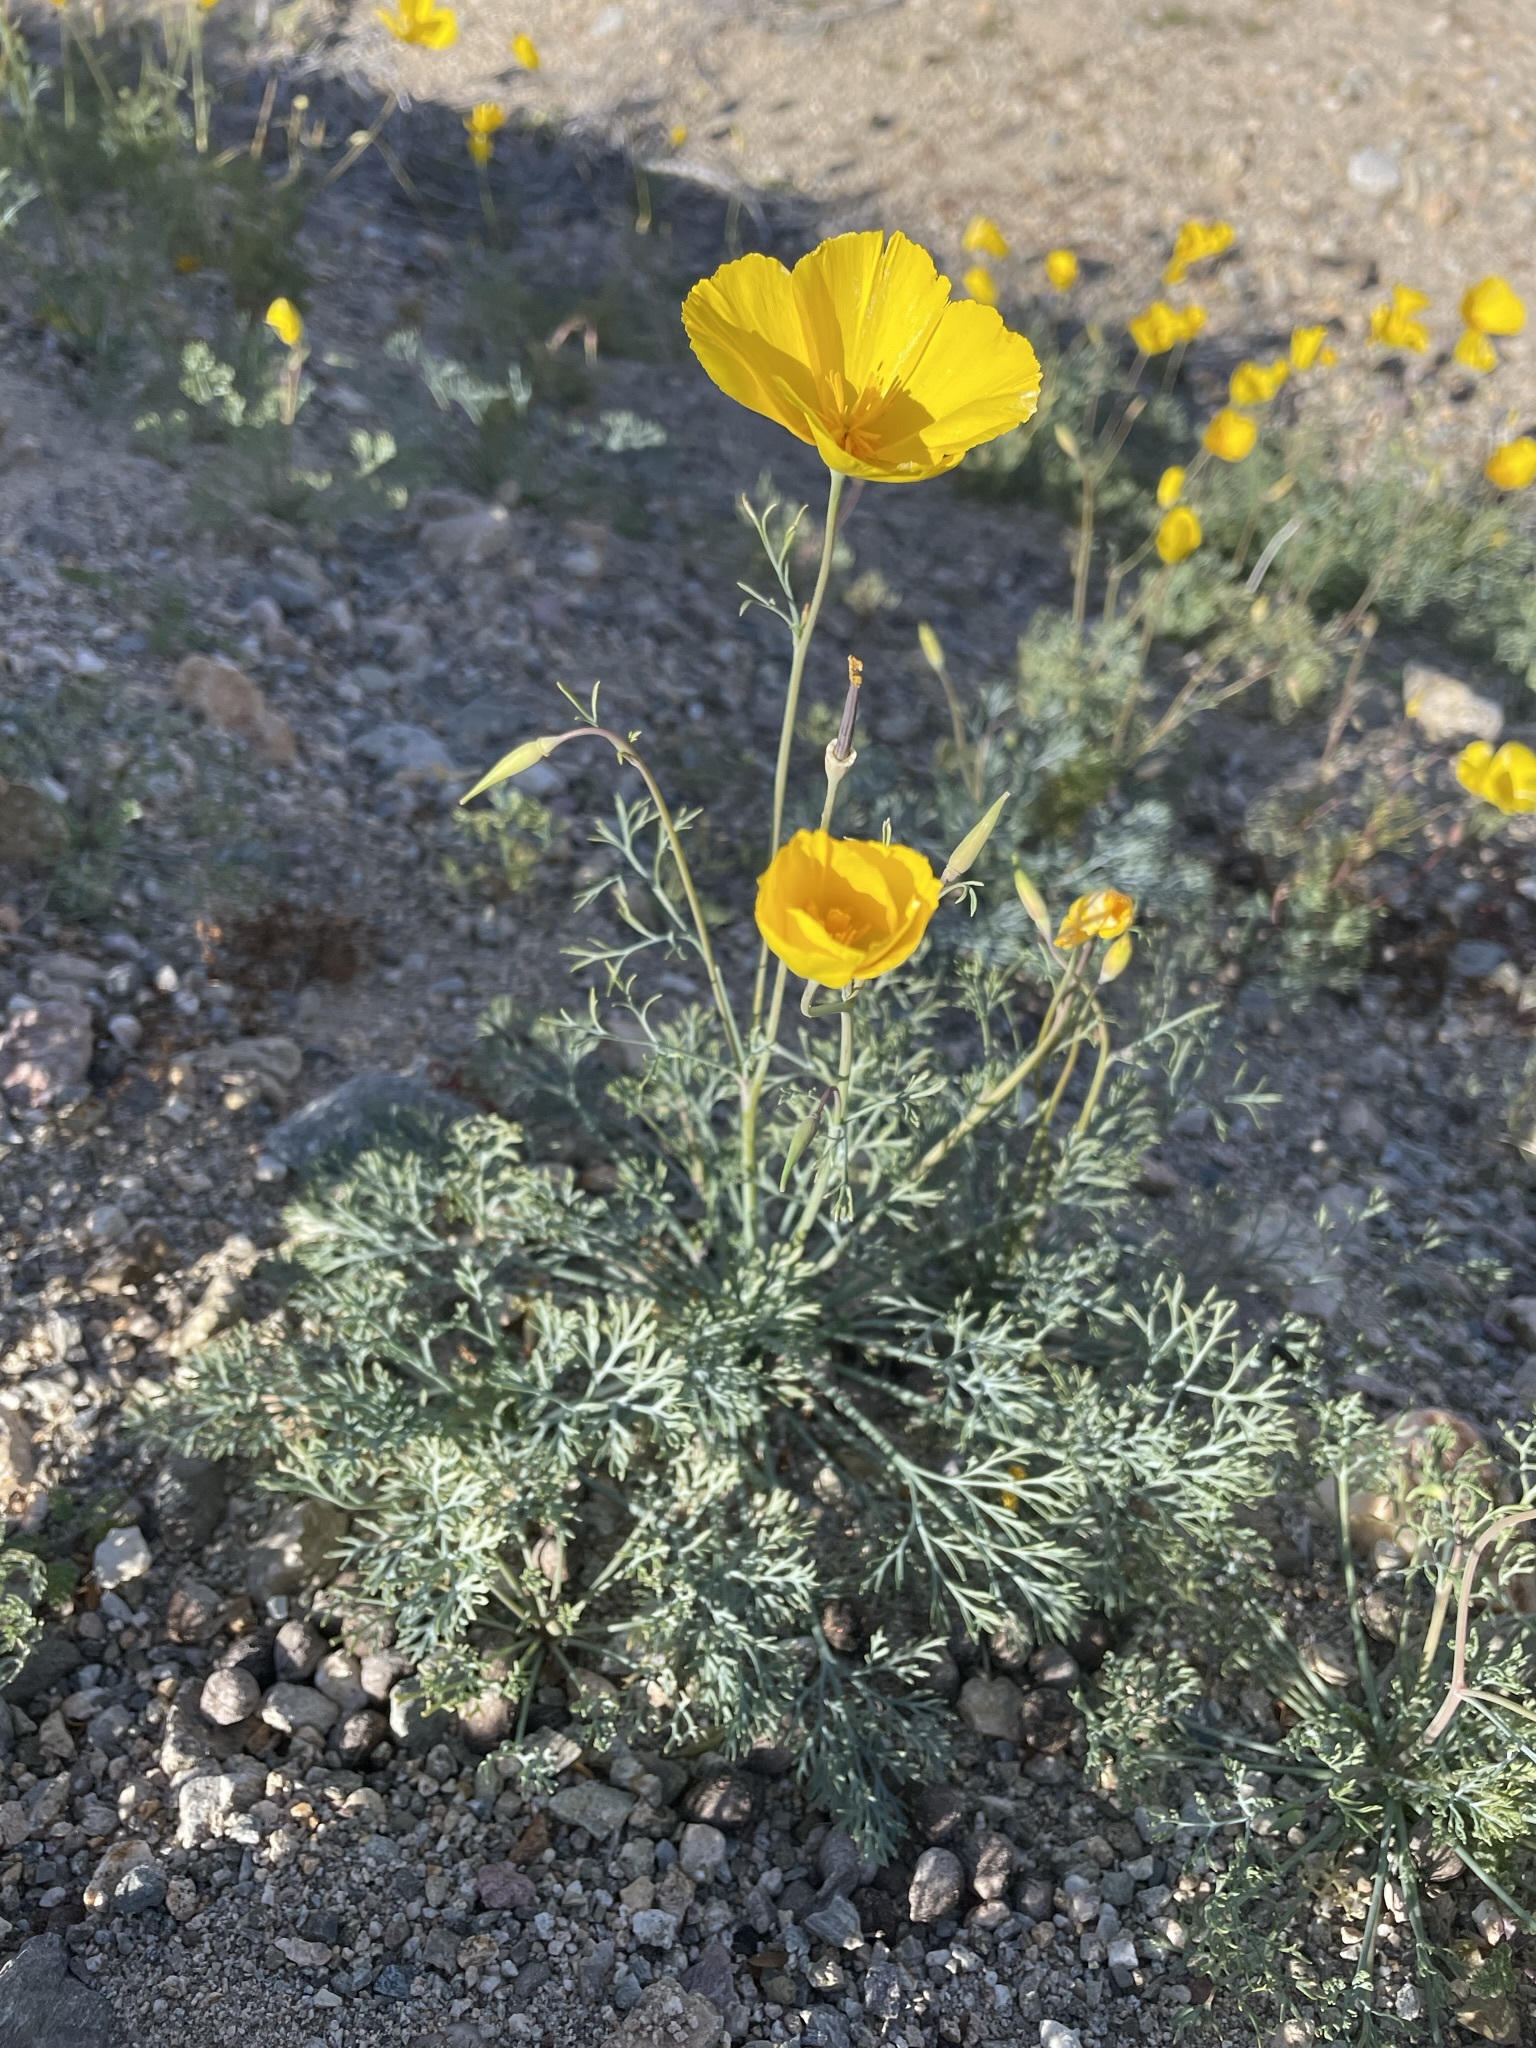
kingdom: Plantae
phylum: Tracheophyta
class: Magnoliopsida
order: Ranunculales
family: Papaveraceae
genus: Eschscholzia
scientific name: Eschscholzia papastillii
